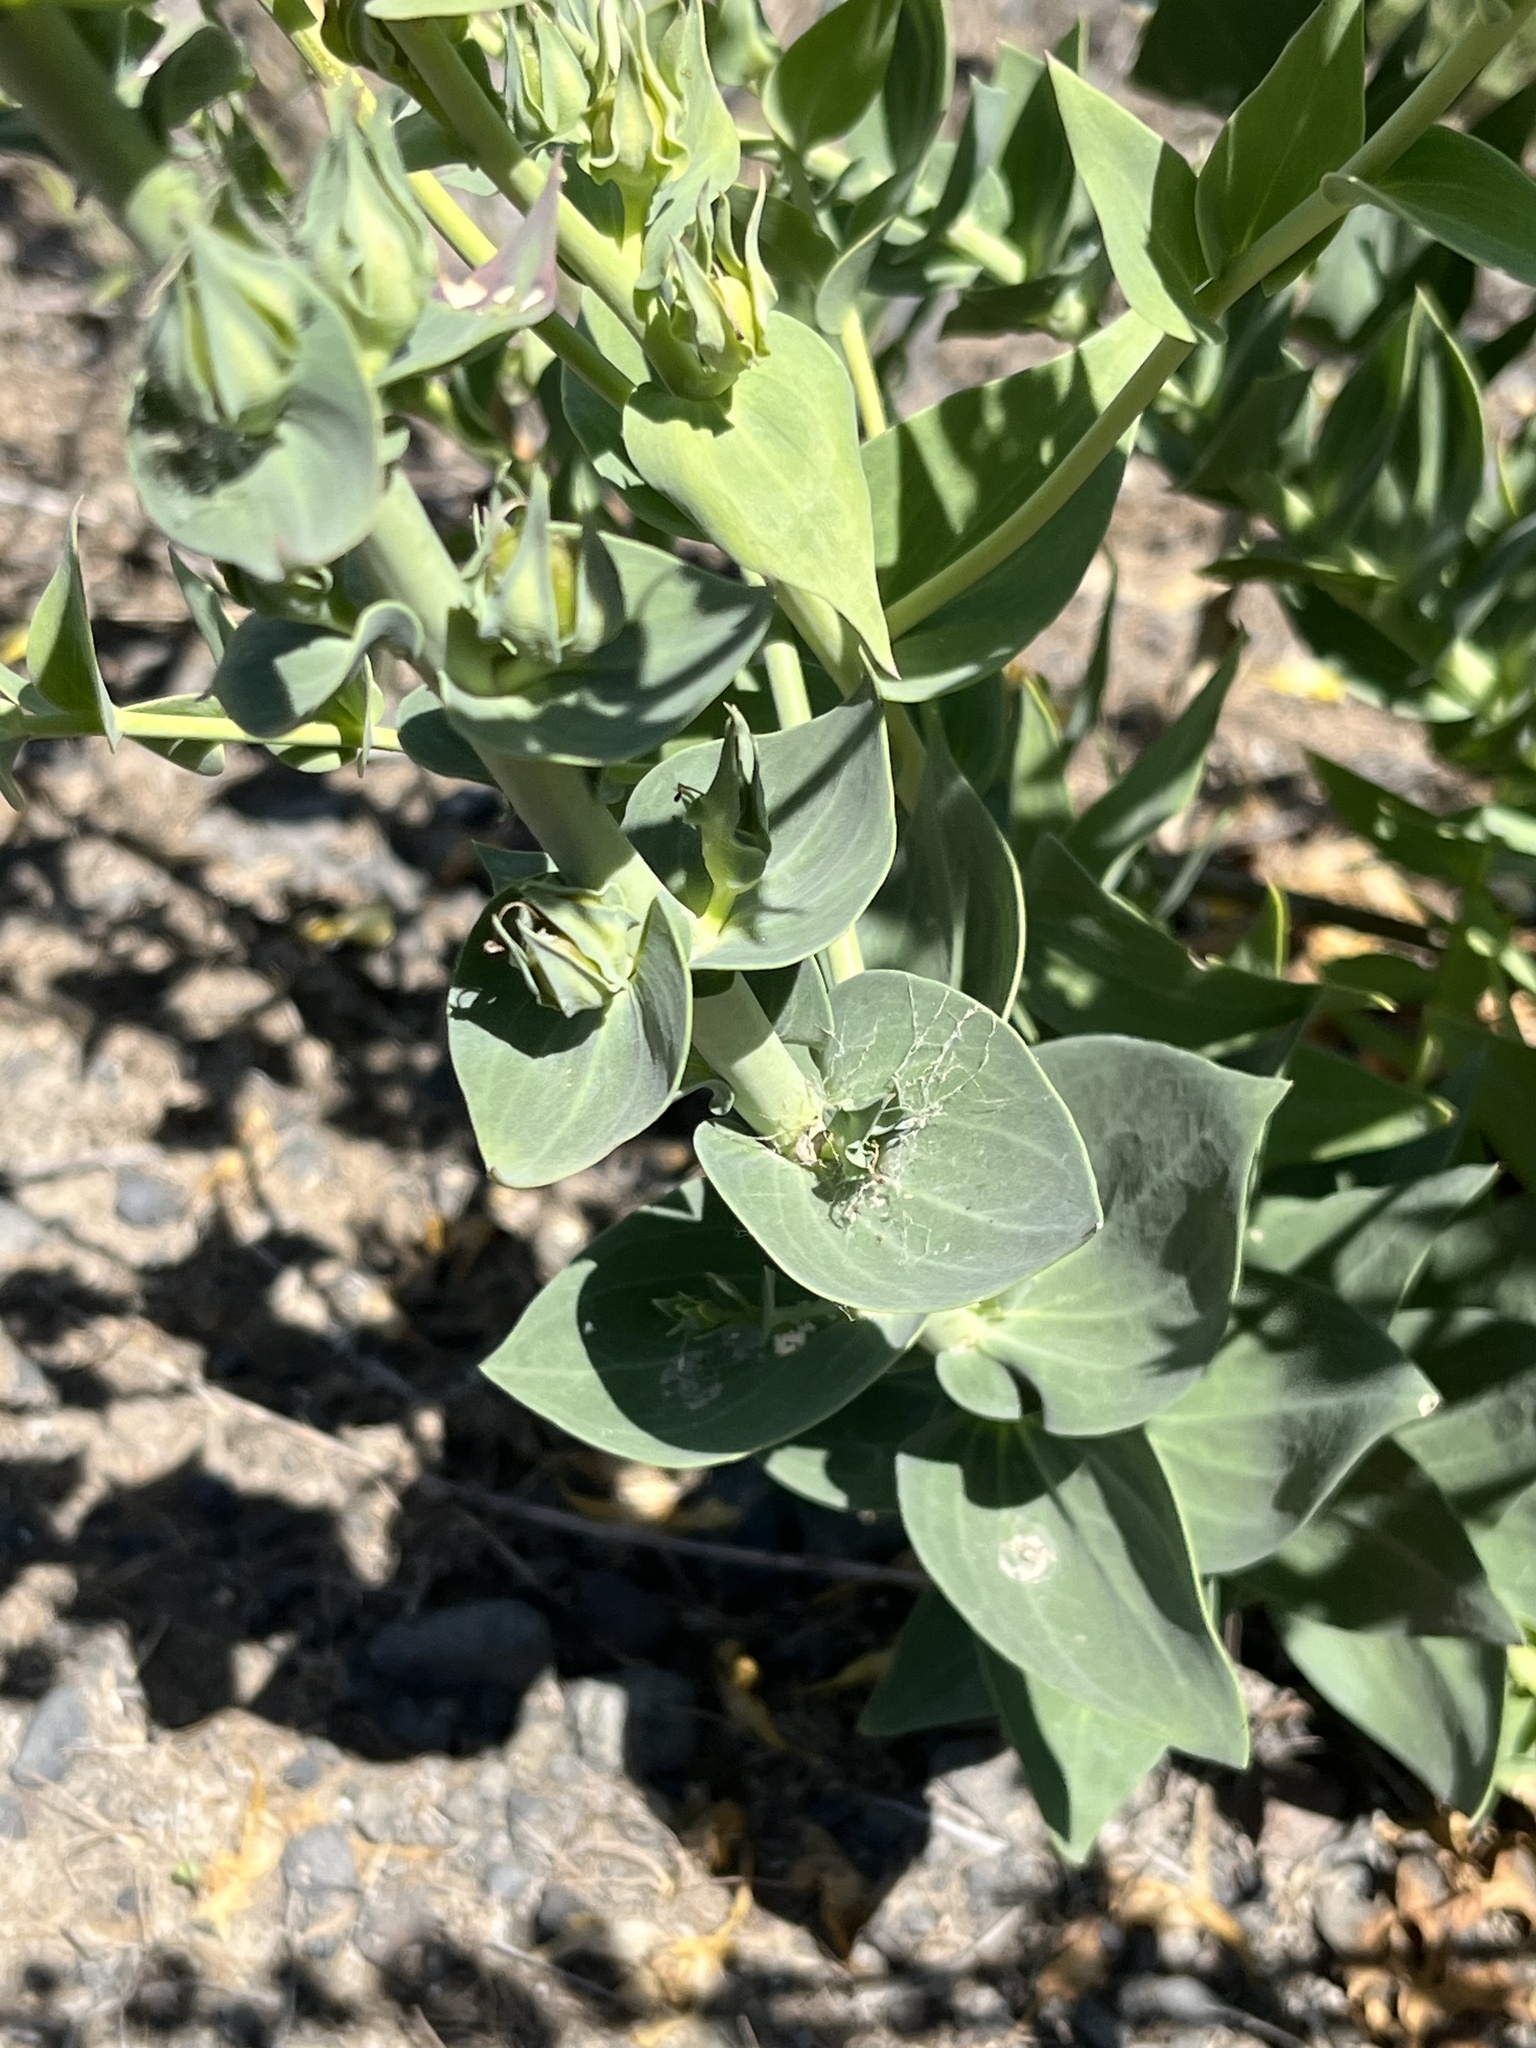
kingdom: Plantae
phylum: Tracheophyta
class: Magnoliopsida
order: Lamiales
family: Plantaginaceae
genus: Linaria
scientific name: Linaria dalmatica
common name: Dalmatian toadflax
